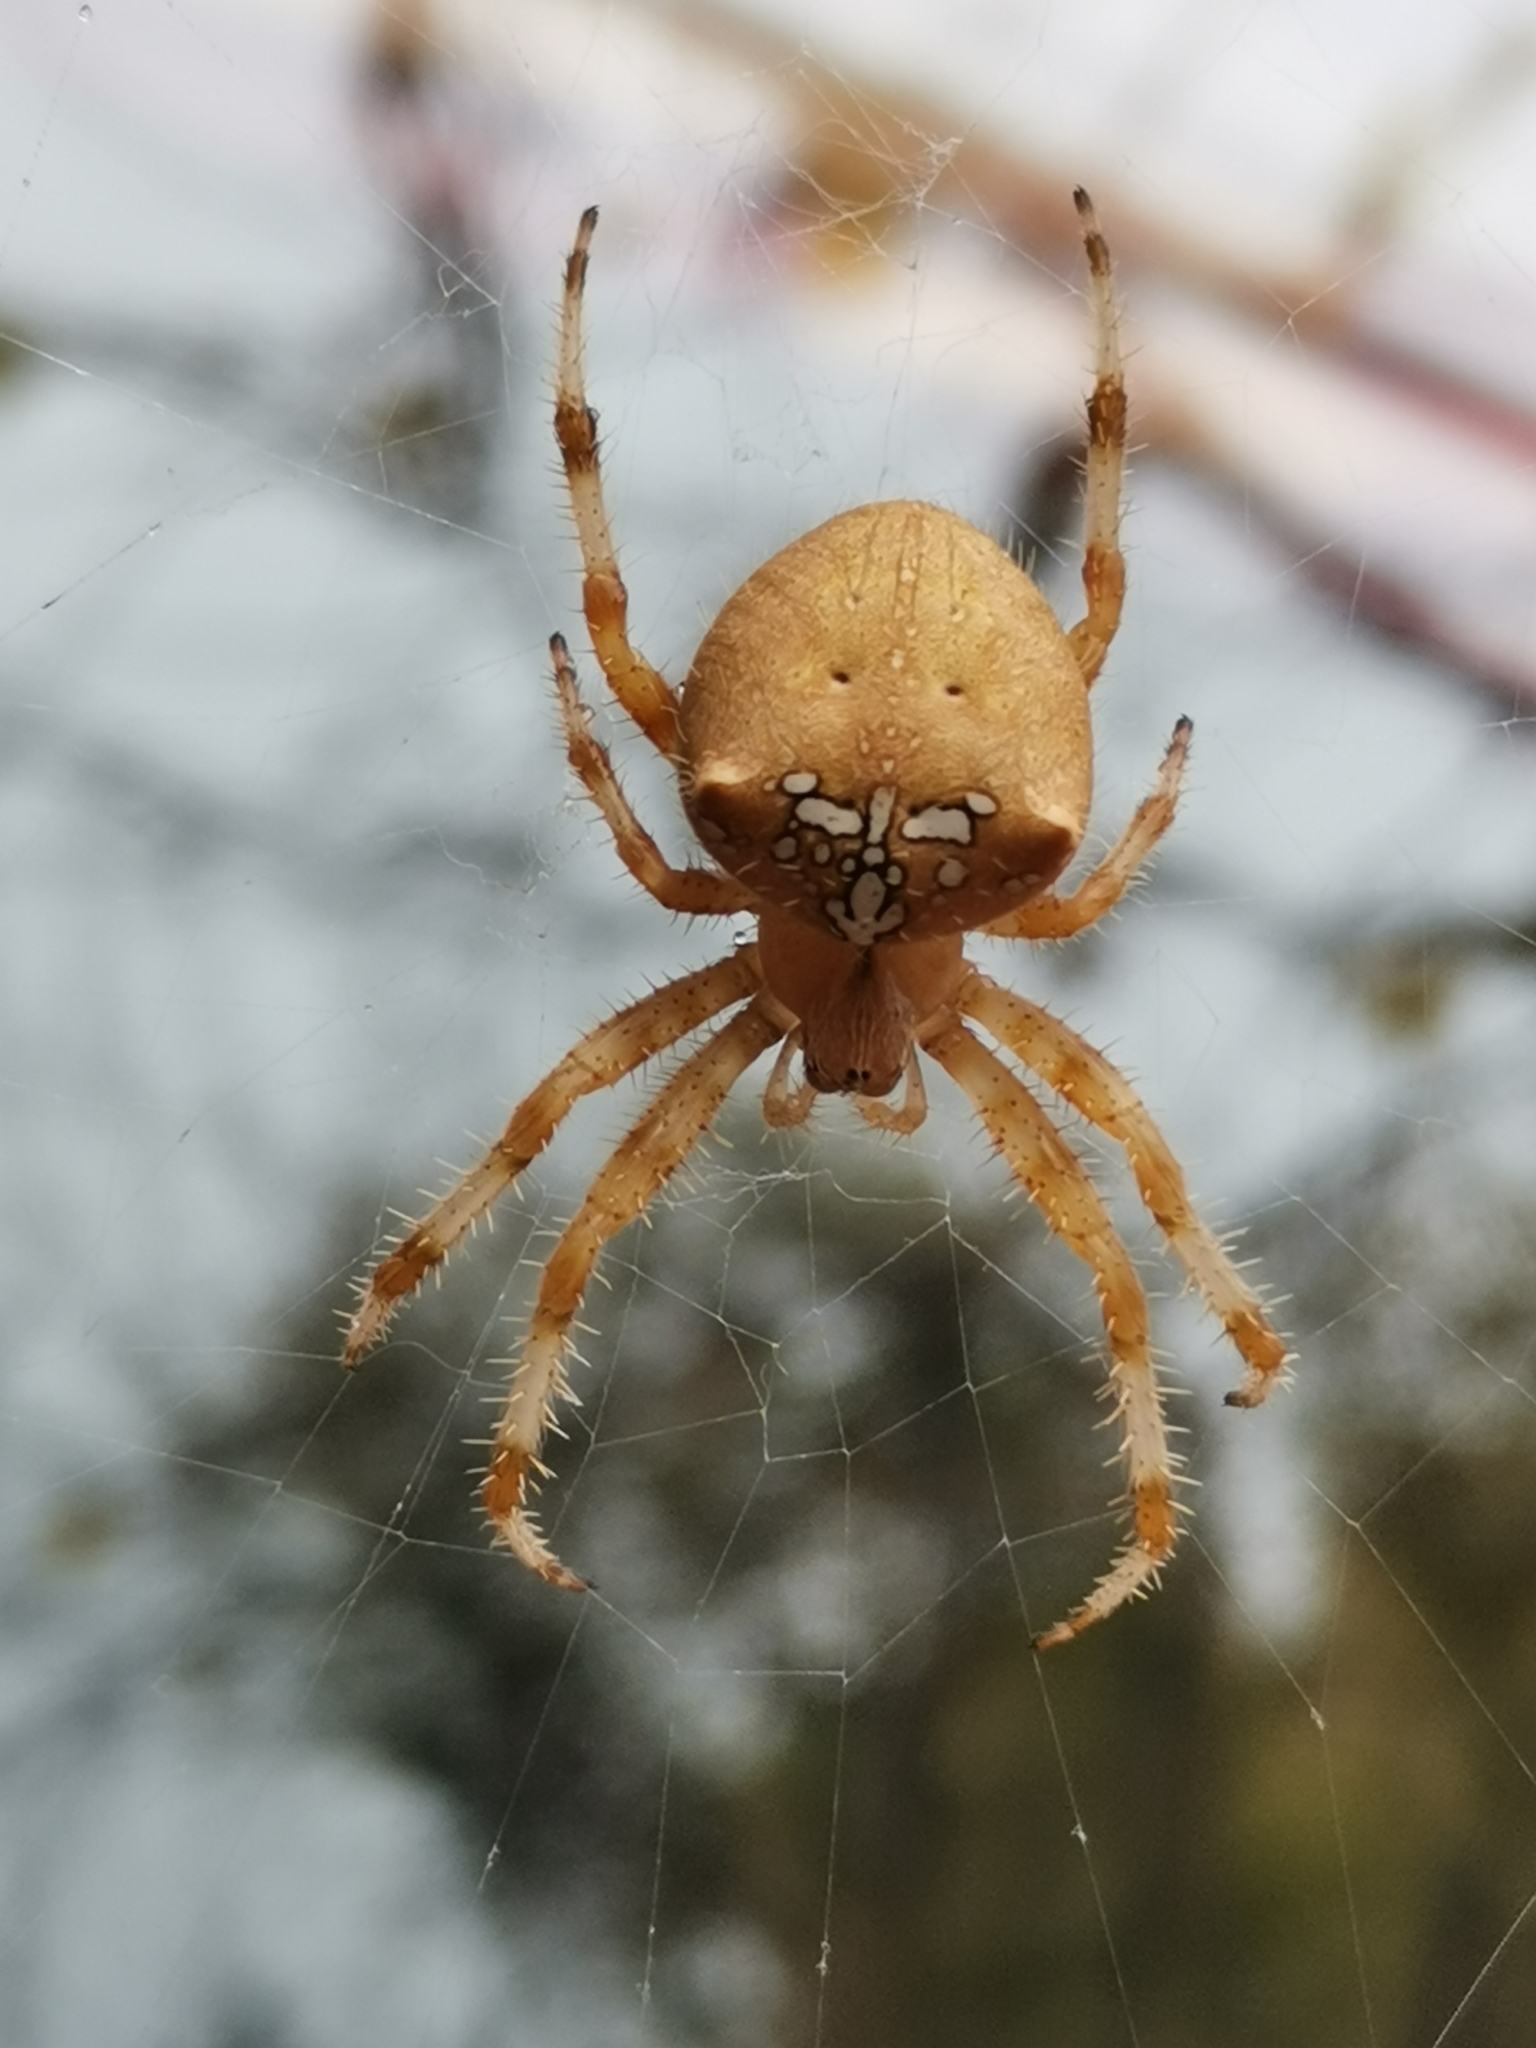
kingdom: Animalia
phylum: Arthropoda
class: Arachnida
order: Araneae
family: Araneidae
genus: Araneus
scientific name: Araneus pallidus
